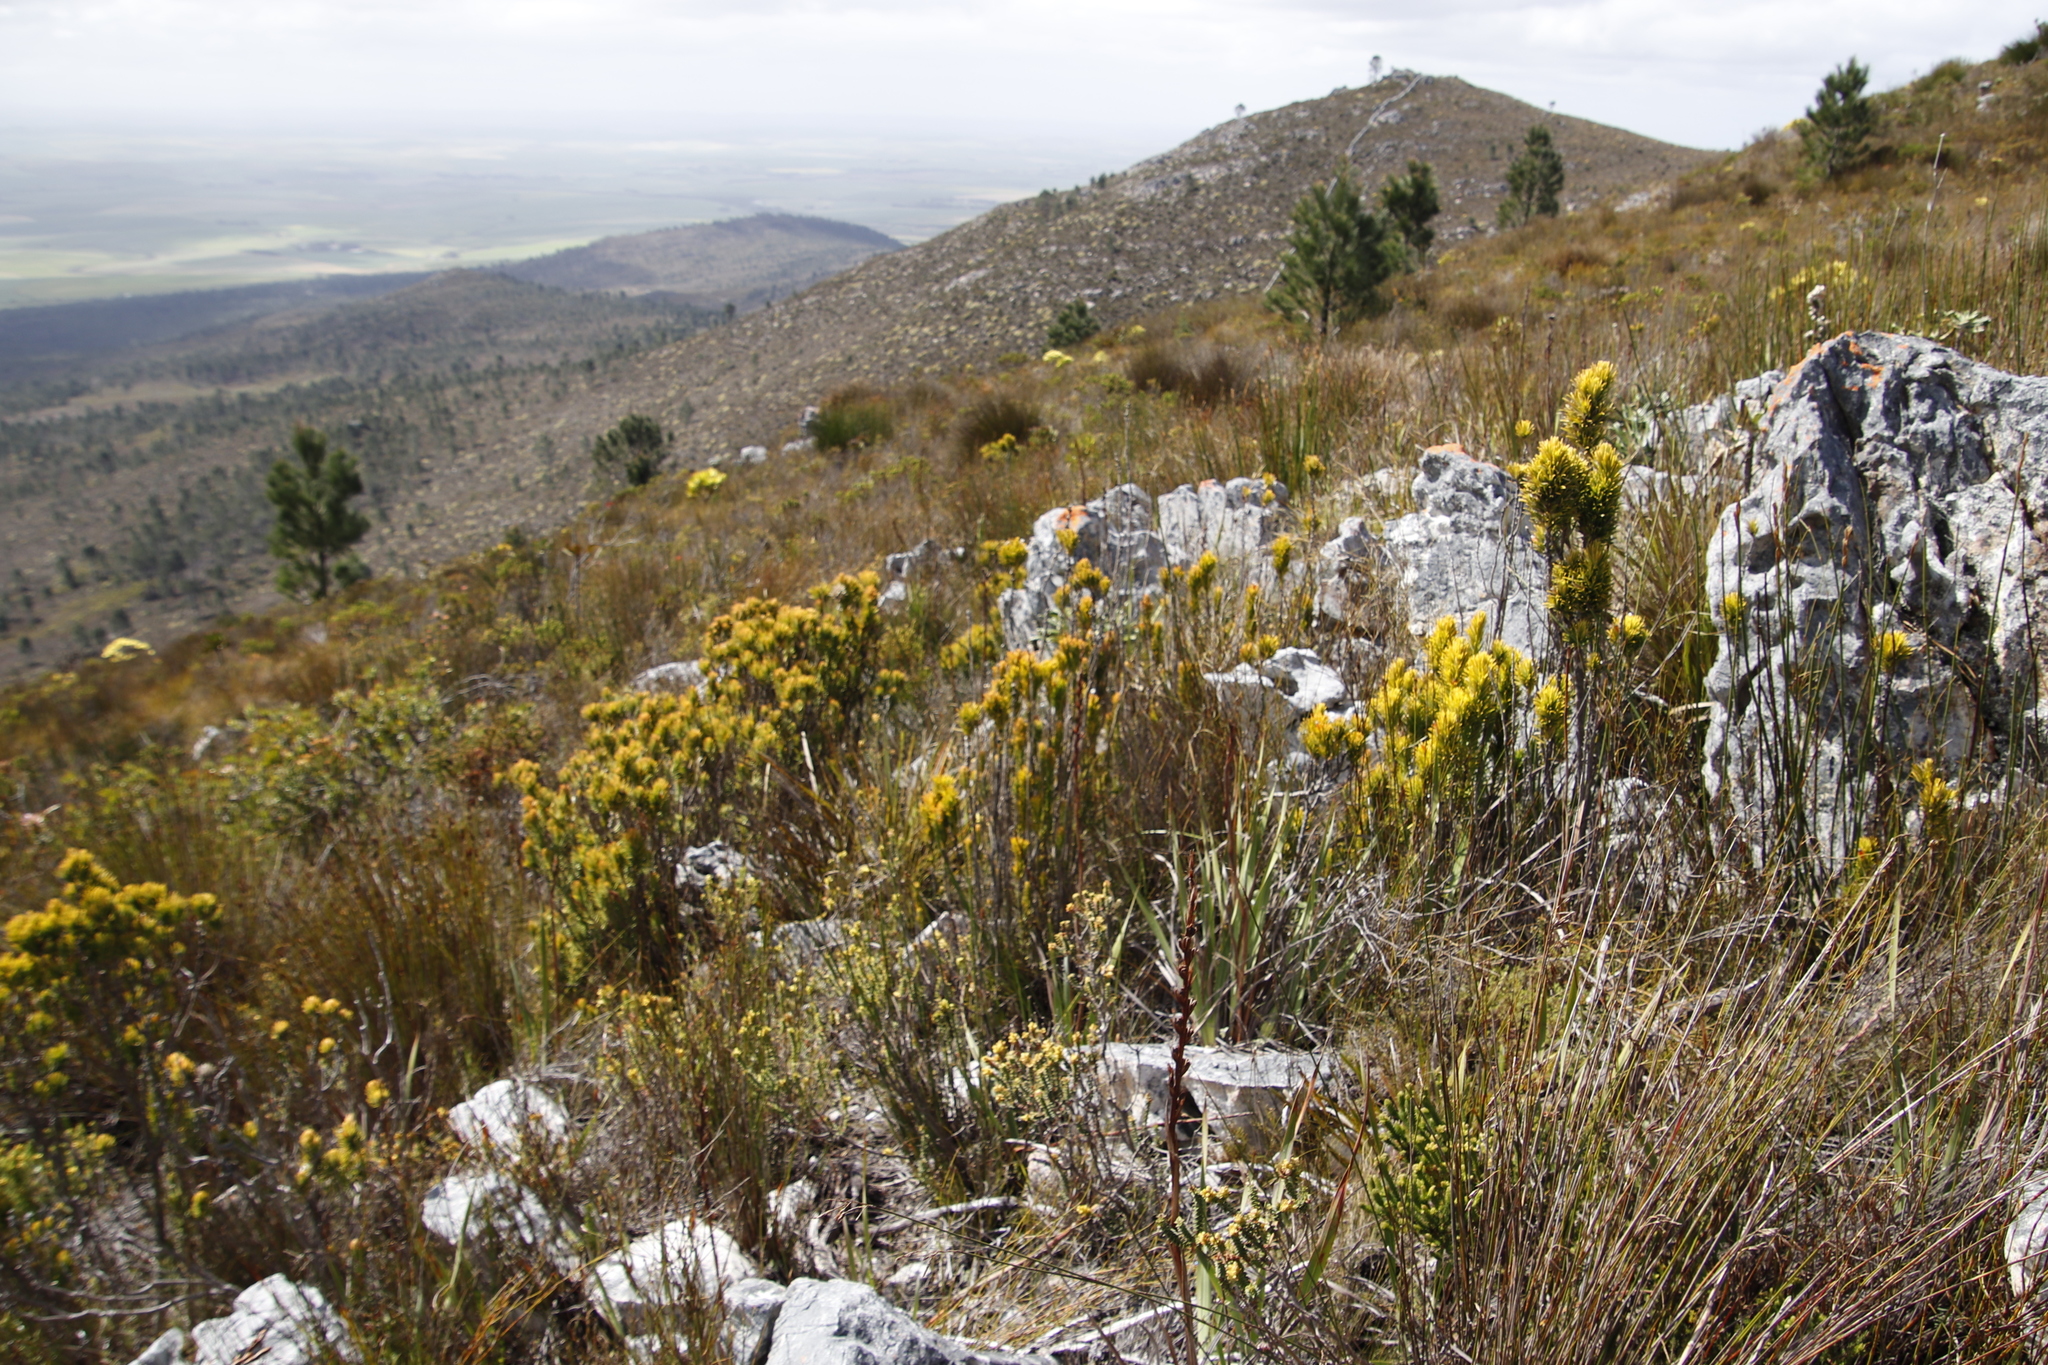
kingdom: Plantae
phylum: Tracheophyta
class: Magnoliopsida
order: Lamiales
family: Stilbaceae
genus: Retzia
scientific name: Retzia capensis
